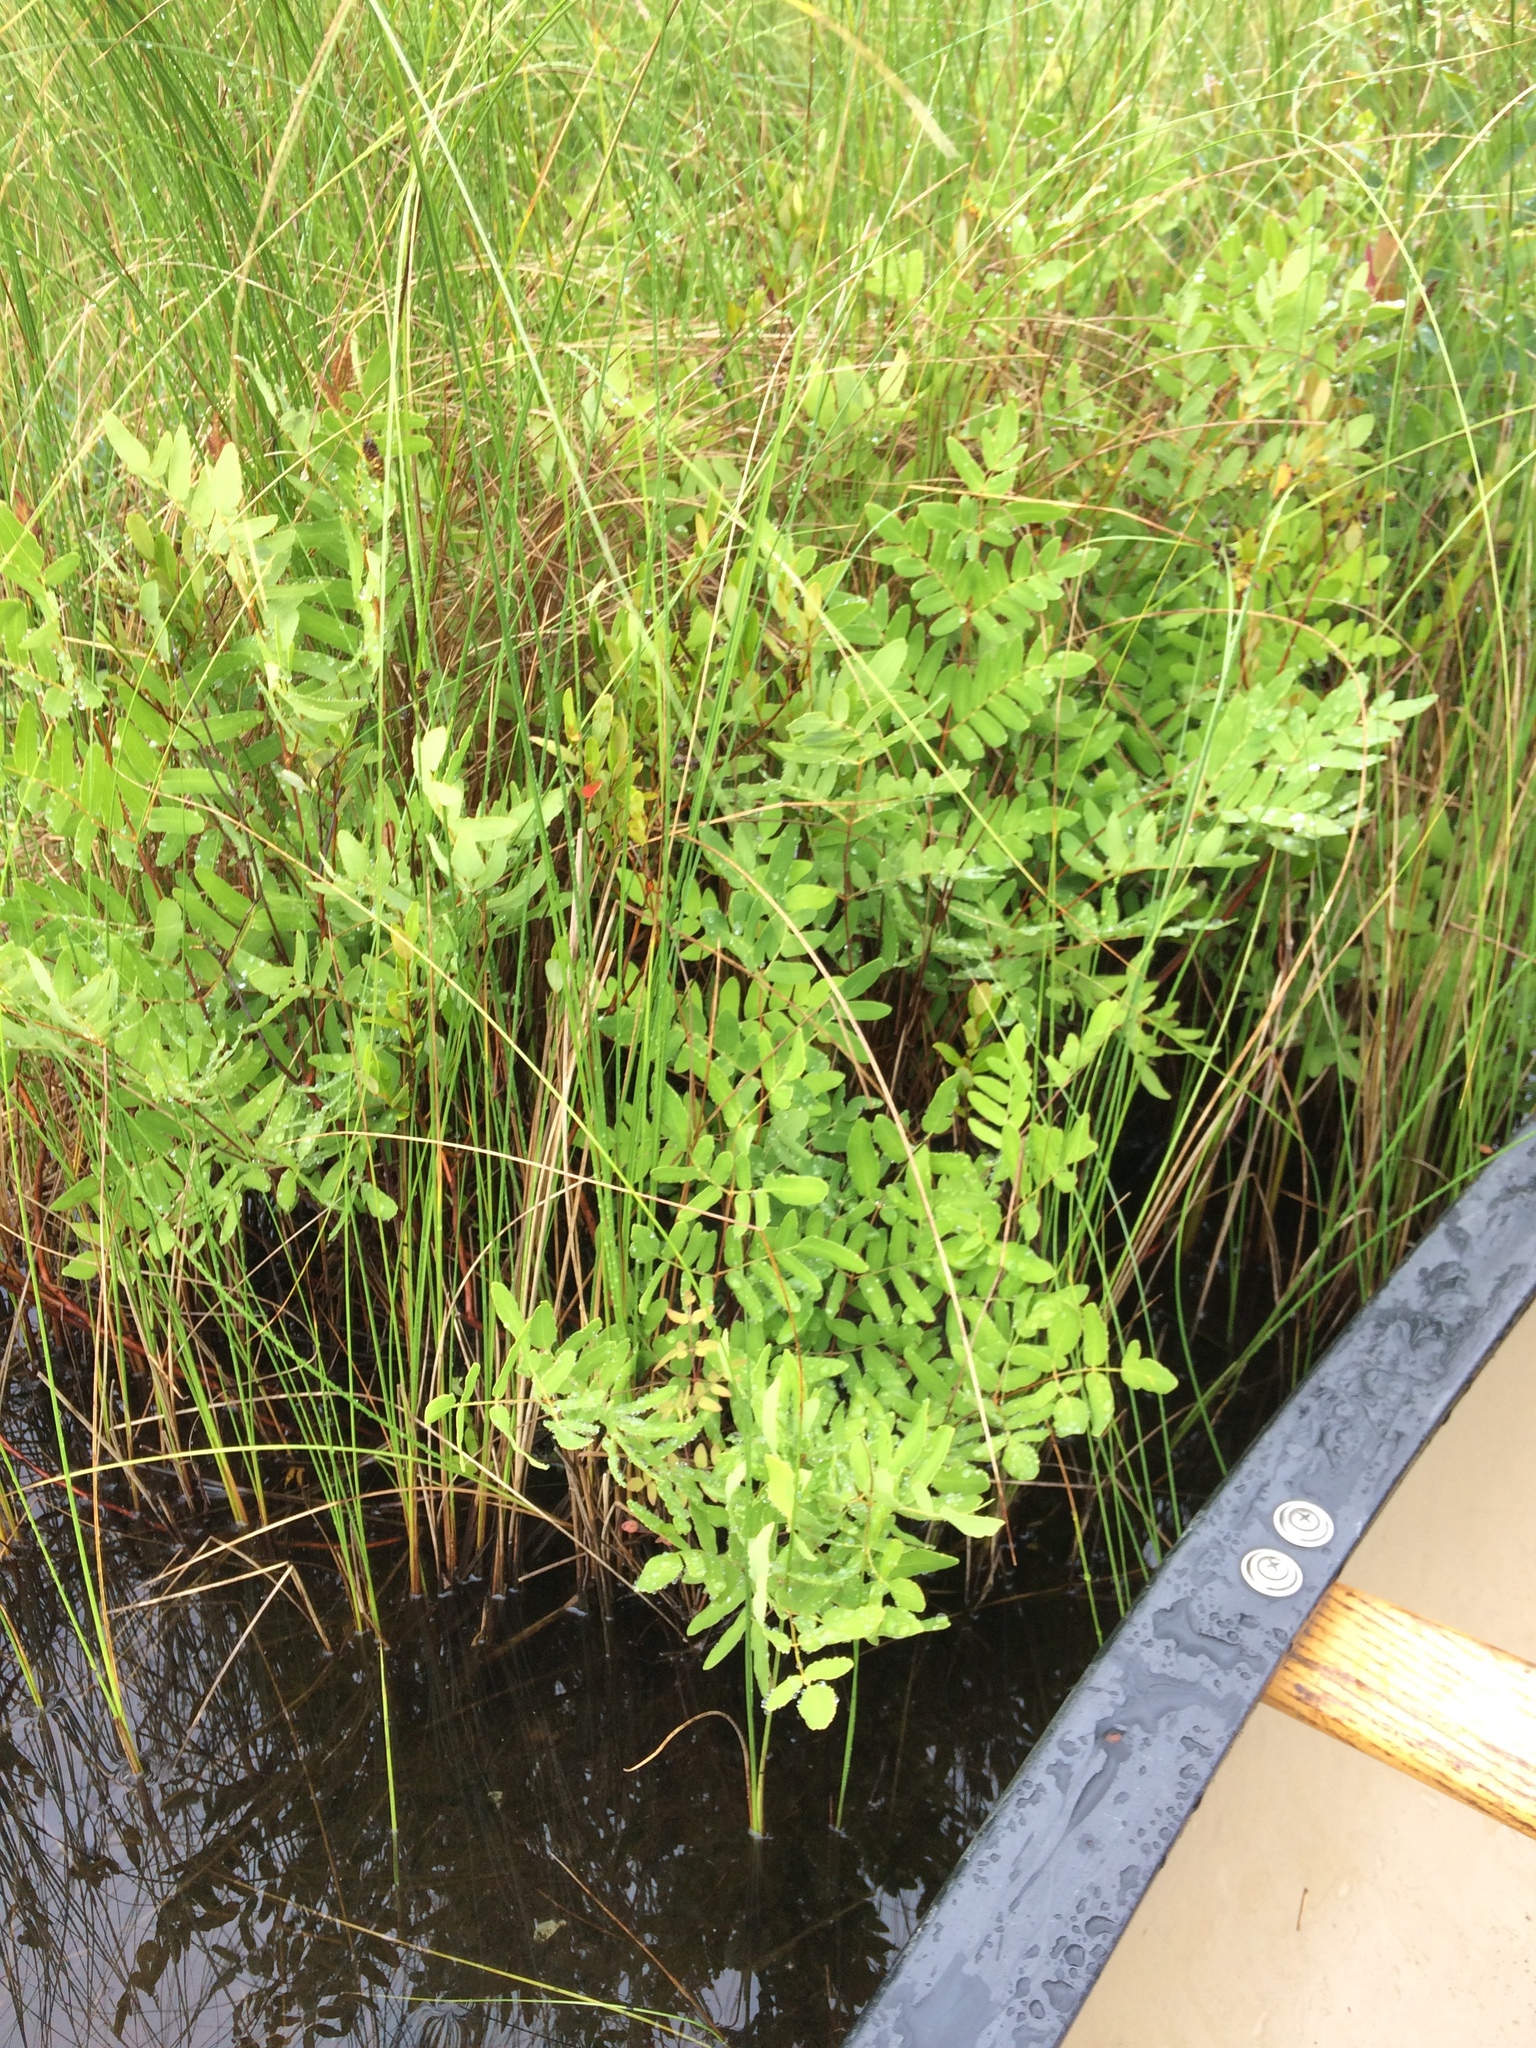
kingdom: Plantae
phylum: Tracheophyta
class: Polypodiopsida
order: Osmundales
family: Osmundaceae
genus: Osmunda
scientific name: Osmunda spectabilis
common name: American royal fern
